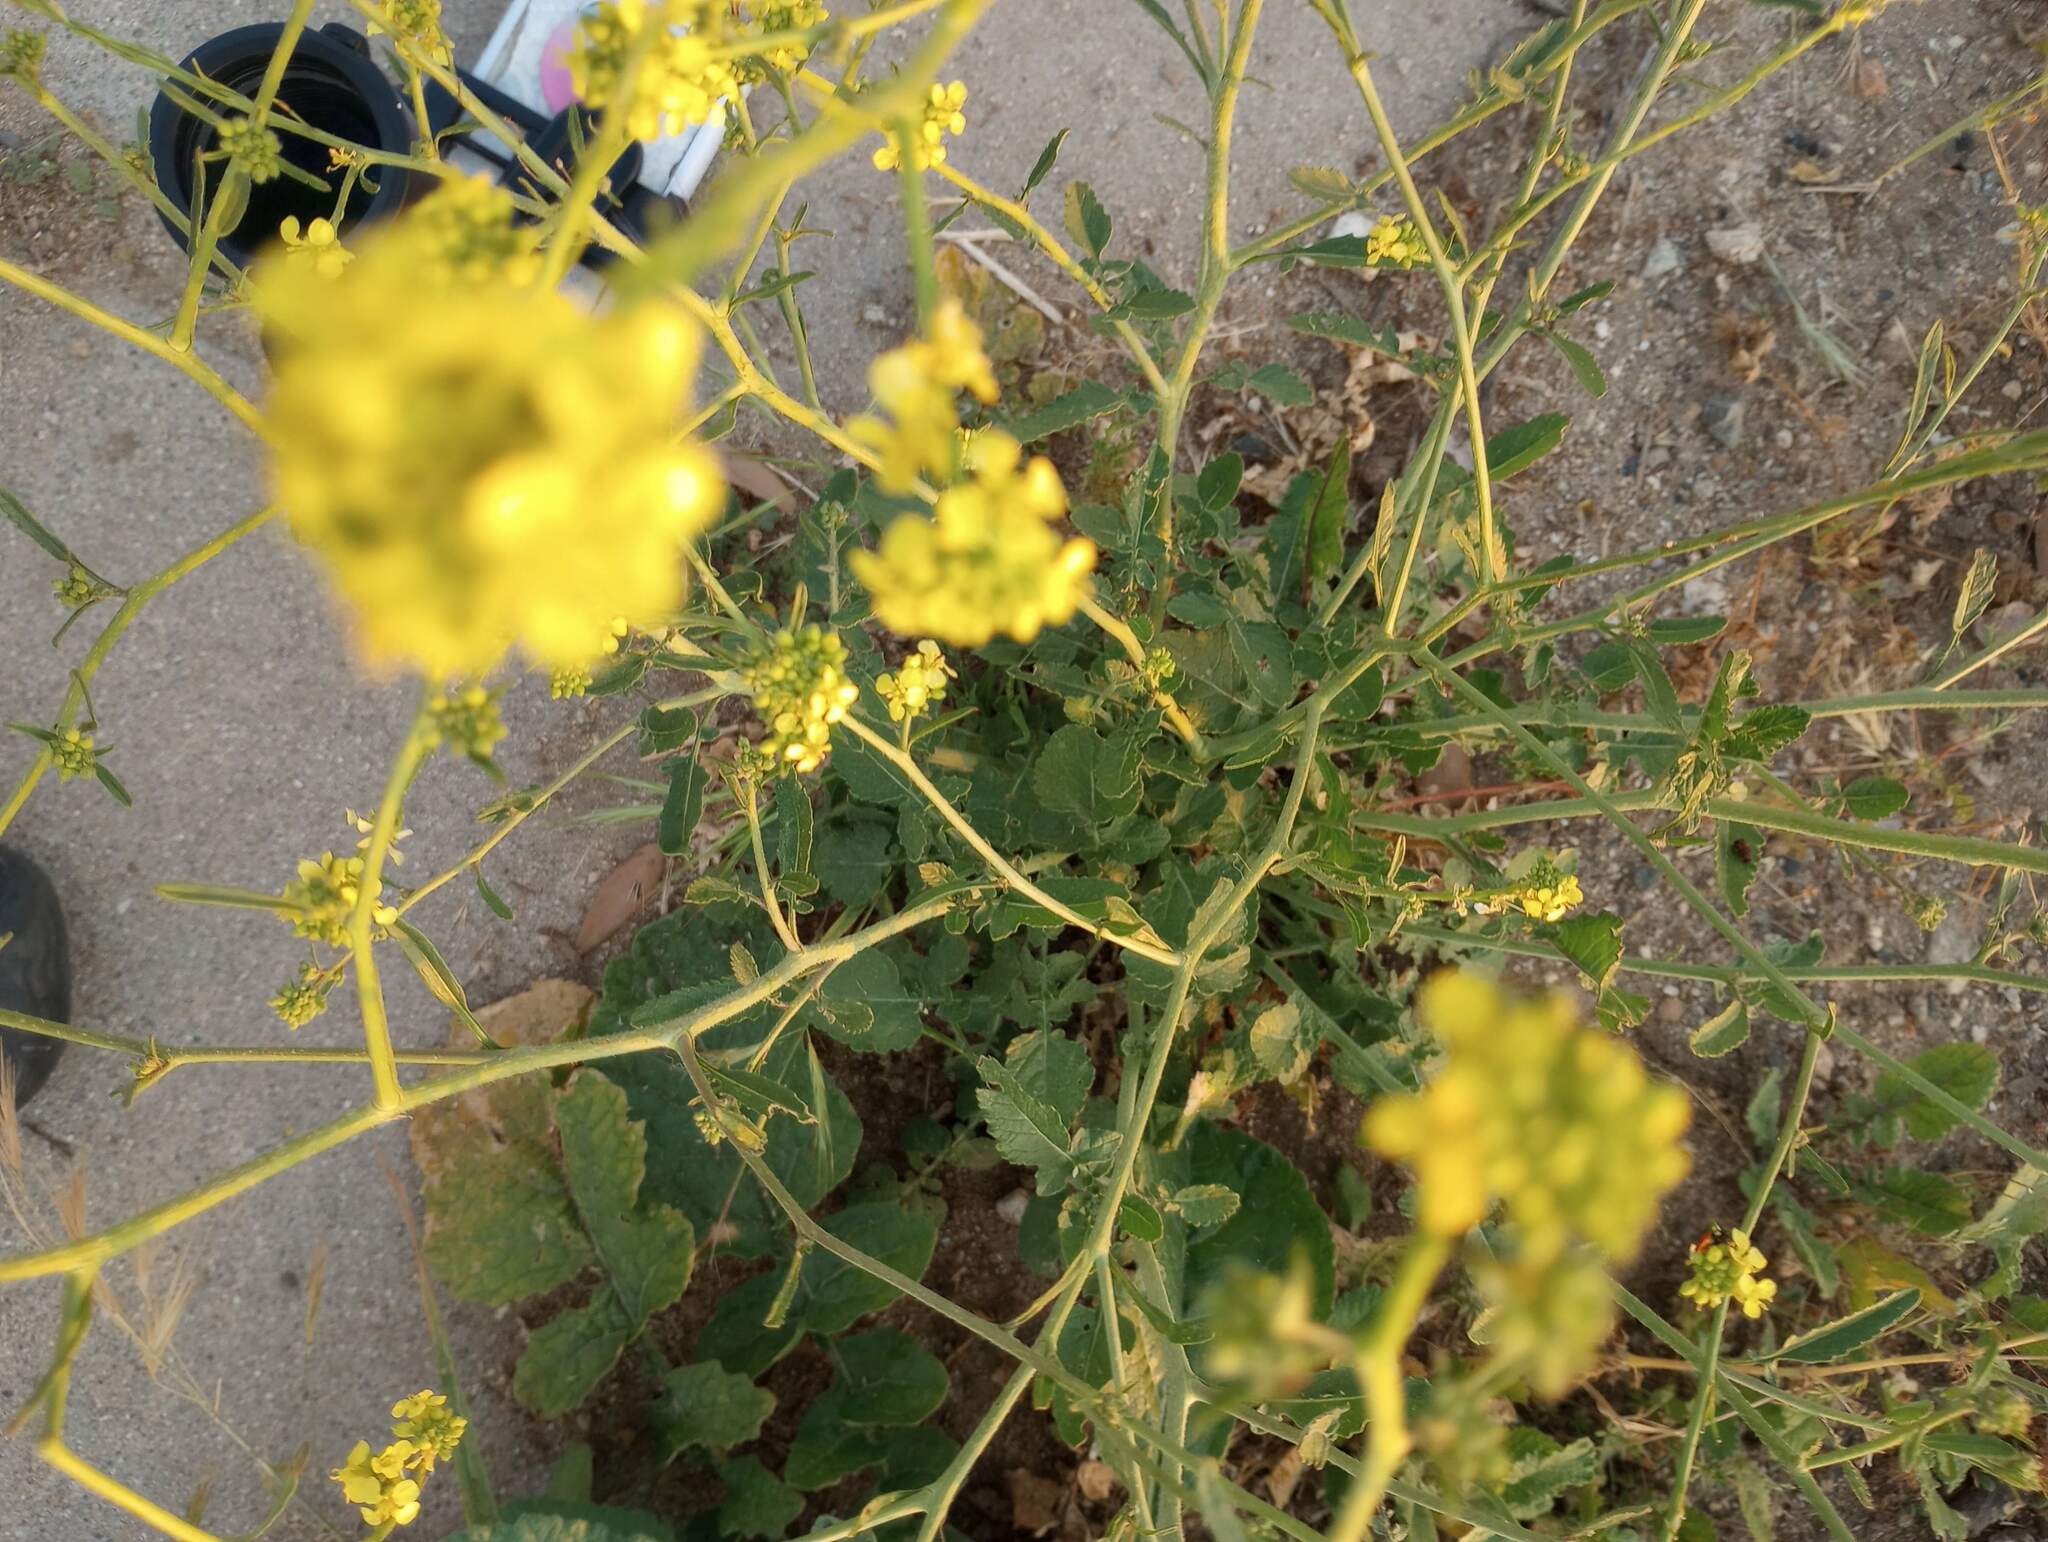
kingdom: Plantae
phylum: Tracheophyta
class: Magnoliopsida
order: Brassicales
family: Brassicaceae
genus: Hirschfeldia
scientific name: Hirschfeldia incana
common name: Hoary mustard
